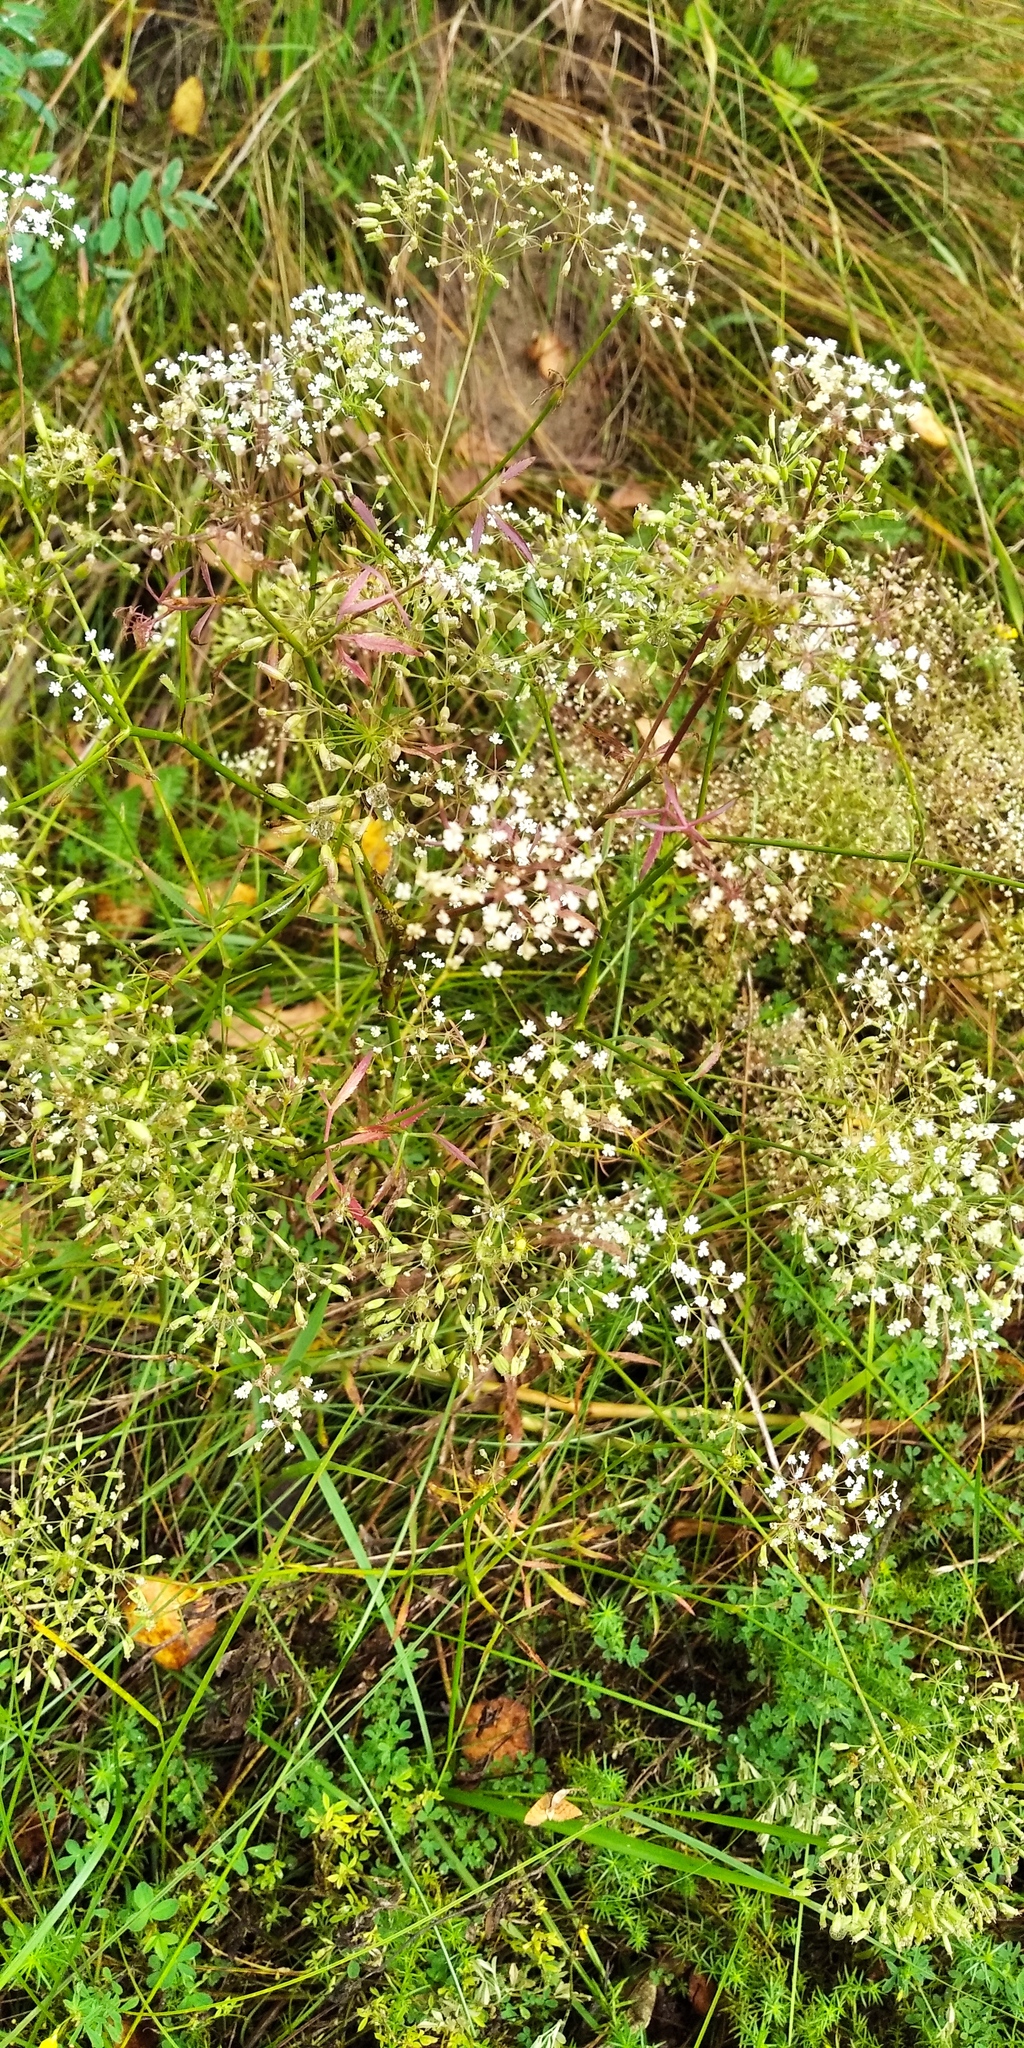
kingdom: Plantae
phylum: Tracheophyta
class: Magnoliopsida
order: Apiales
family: Apiaceae
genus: Falcaria
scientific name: Falcaria vulgaris
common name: Longleaf
